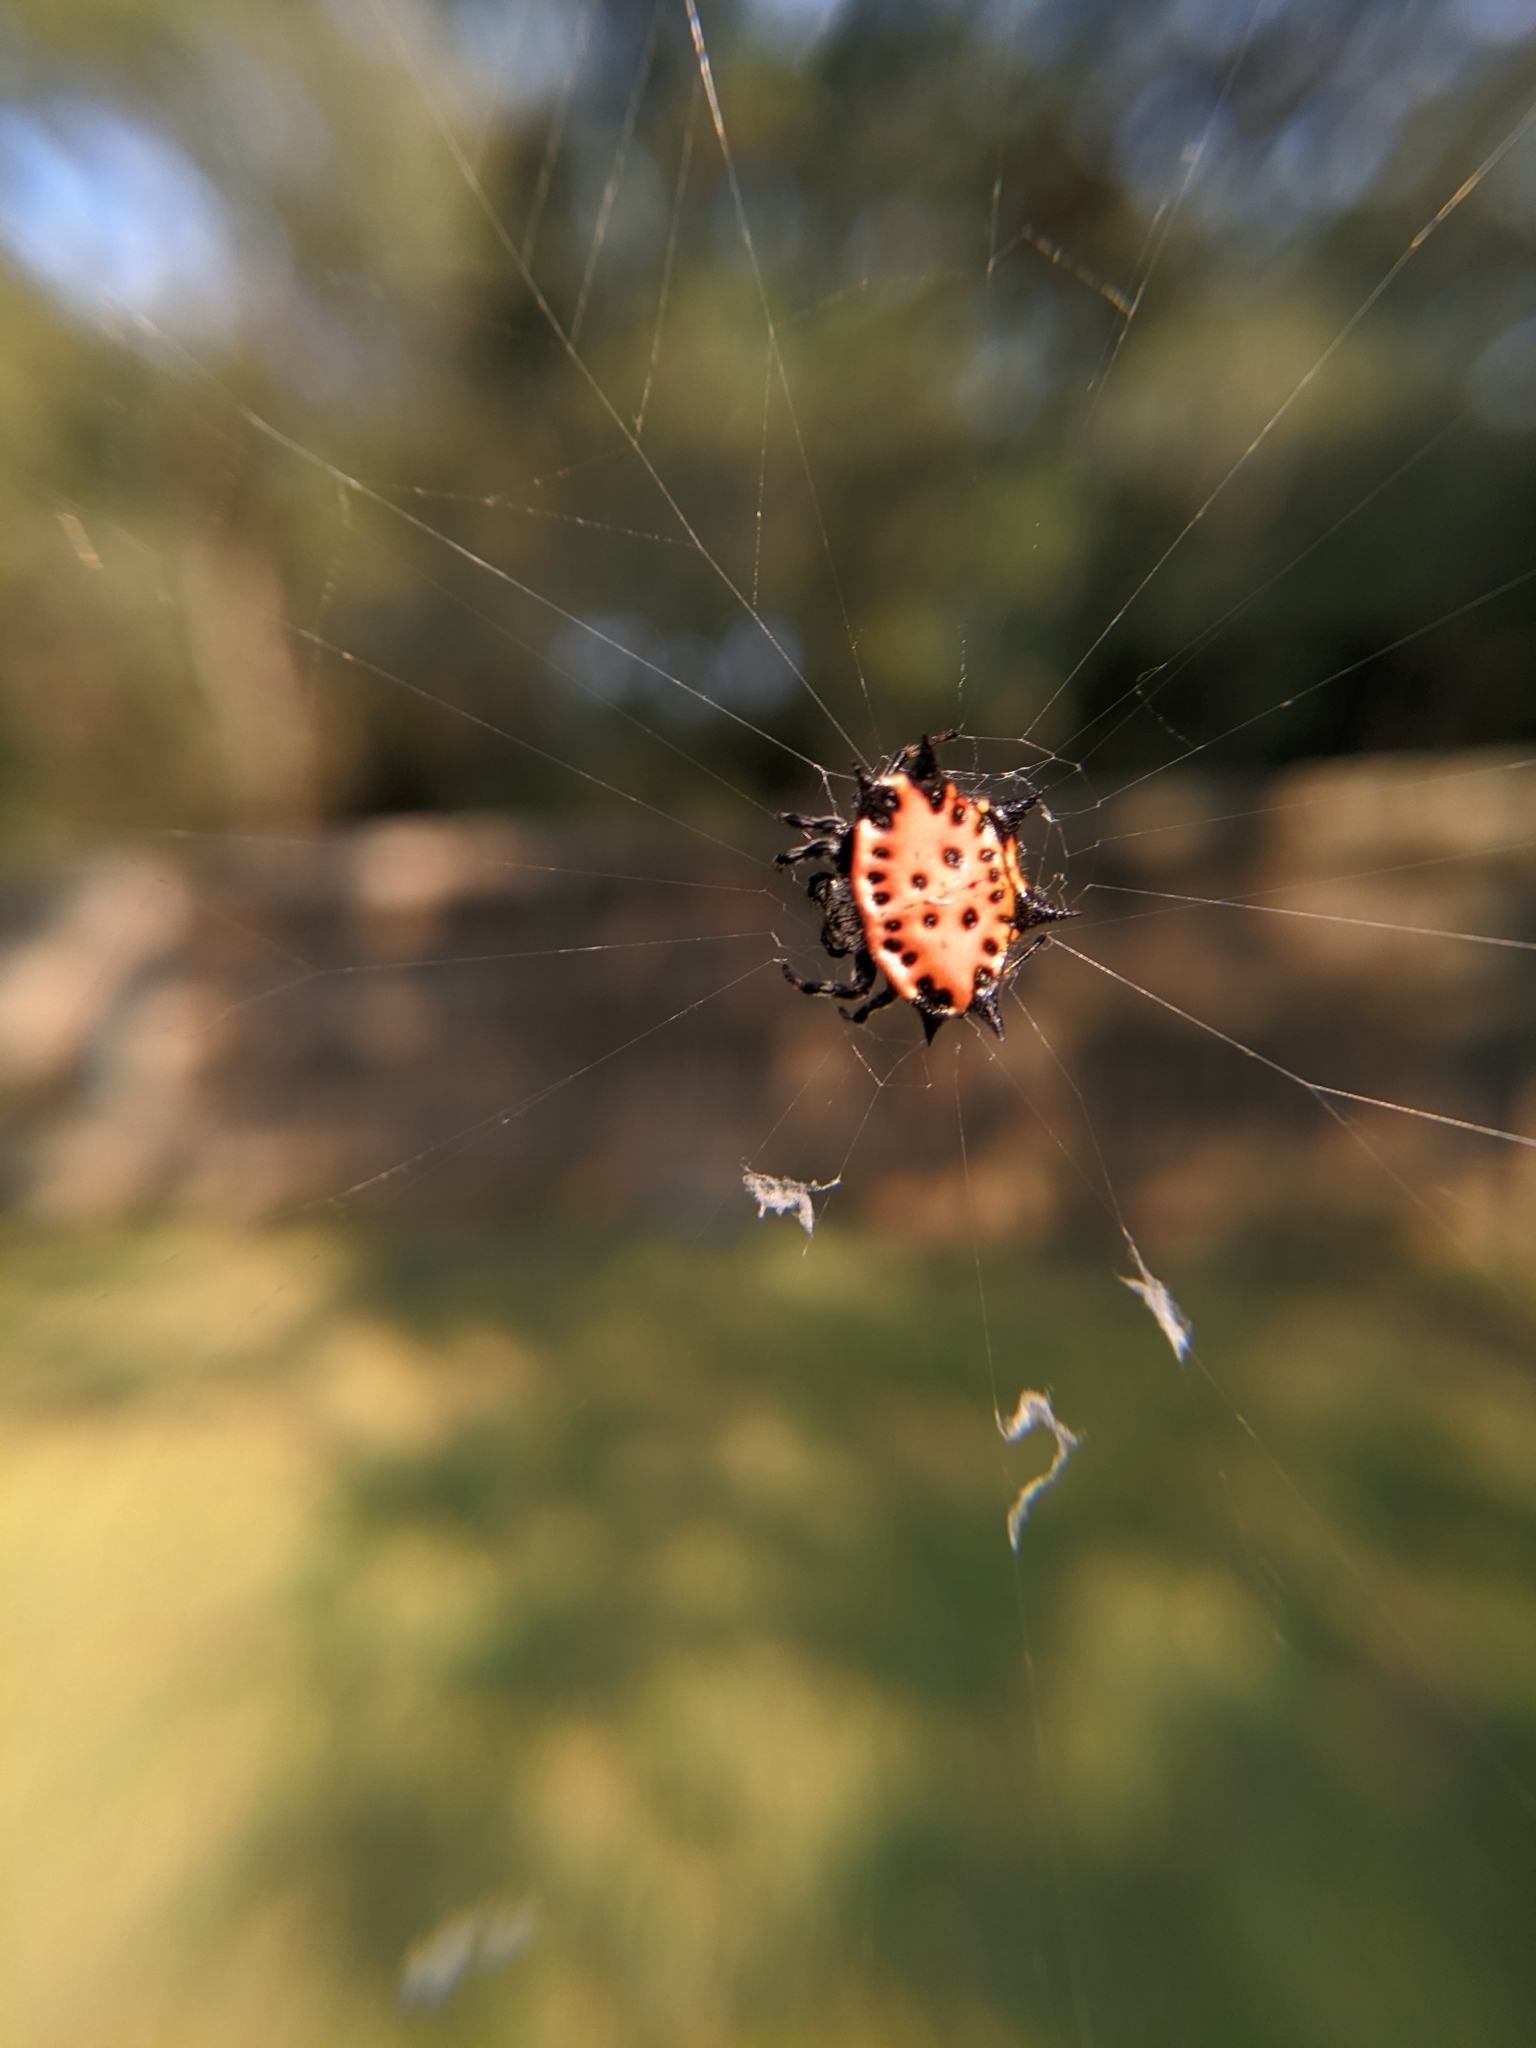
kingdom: Animalia
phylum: Arthropoda
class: Arachnida
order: Araneae
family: Araneidae
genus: Gasteracantha
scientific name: Gasteracantha cancriformis
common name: Orb weavers
